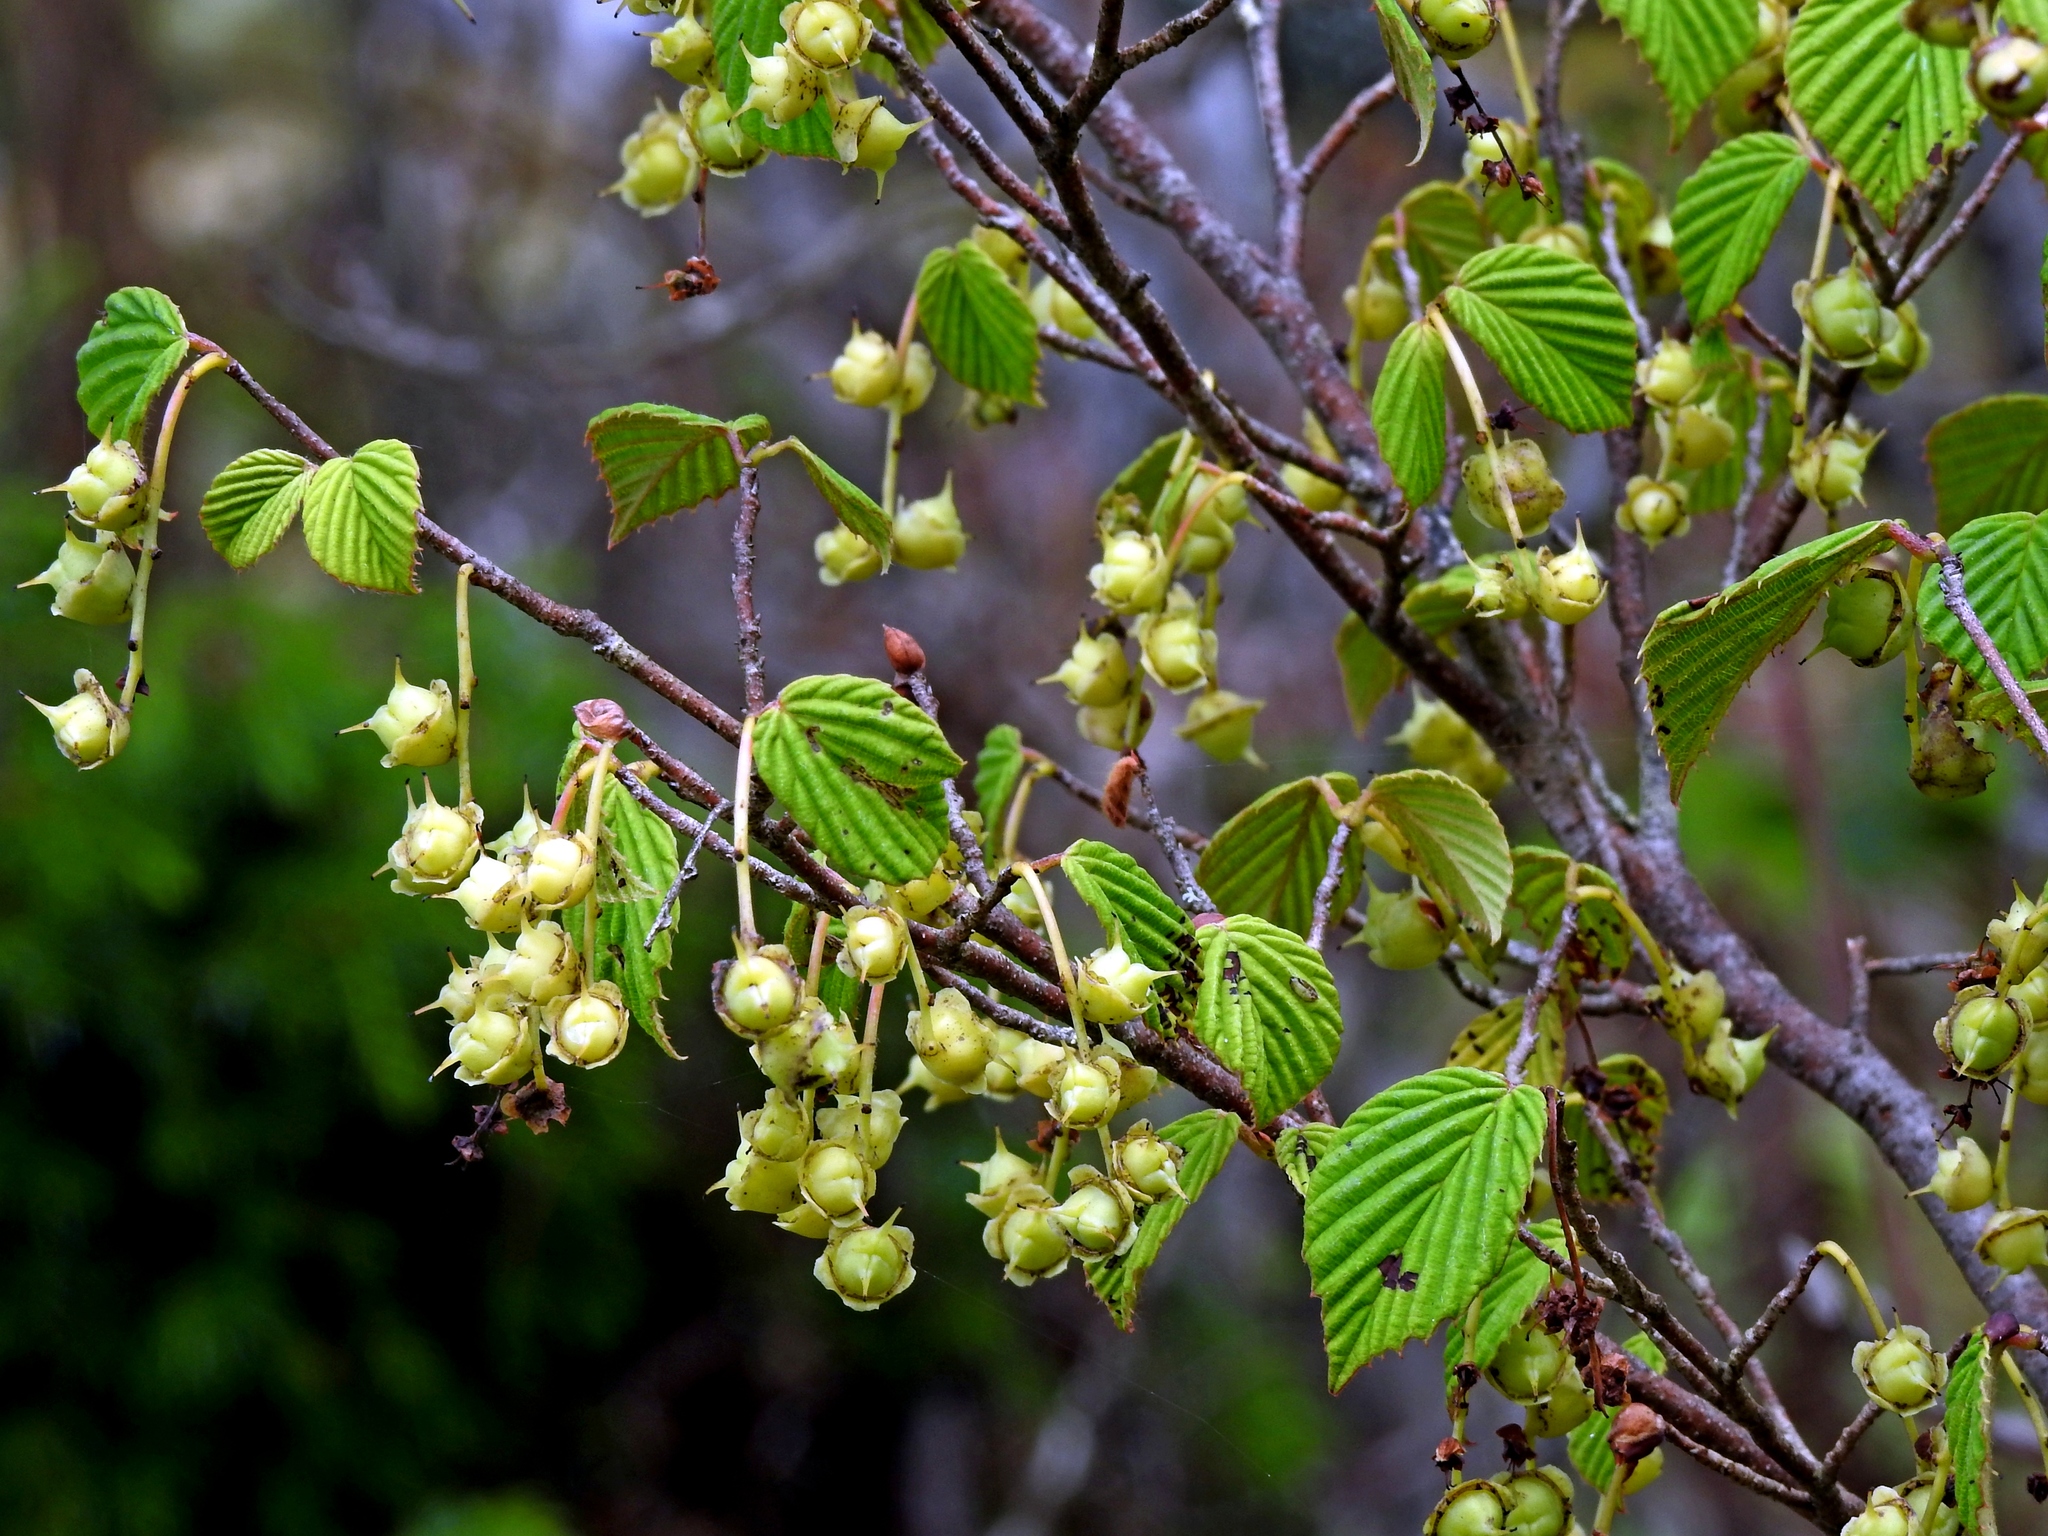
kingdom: Plantae
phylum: Tracheophyta
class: Magnoliopsida
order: Saxifragales
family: Hamamelidaceae
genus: Corylopsis
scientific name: Corylopsis pauciflora
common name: Buttercup winter-hazel
